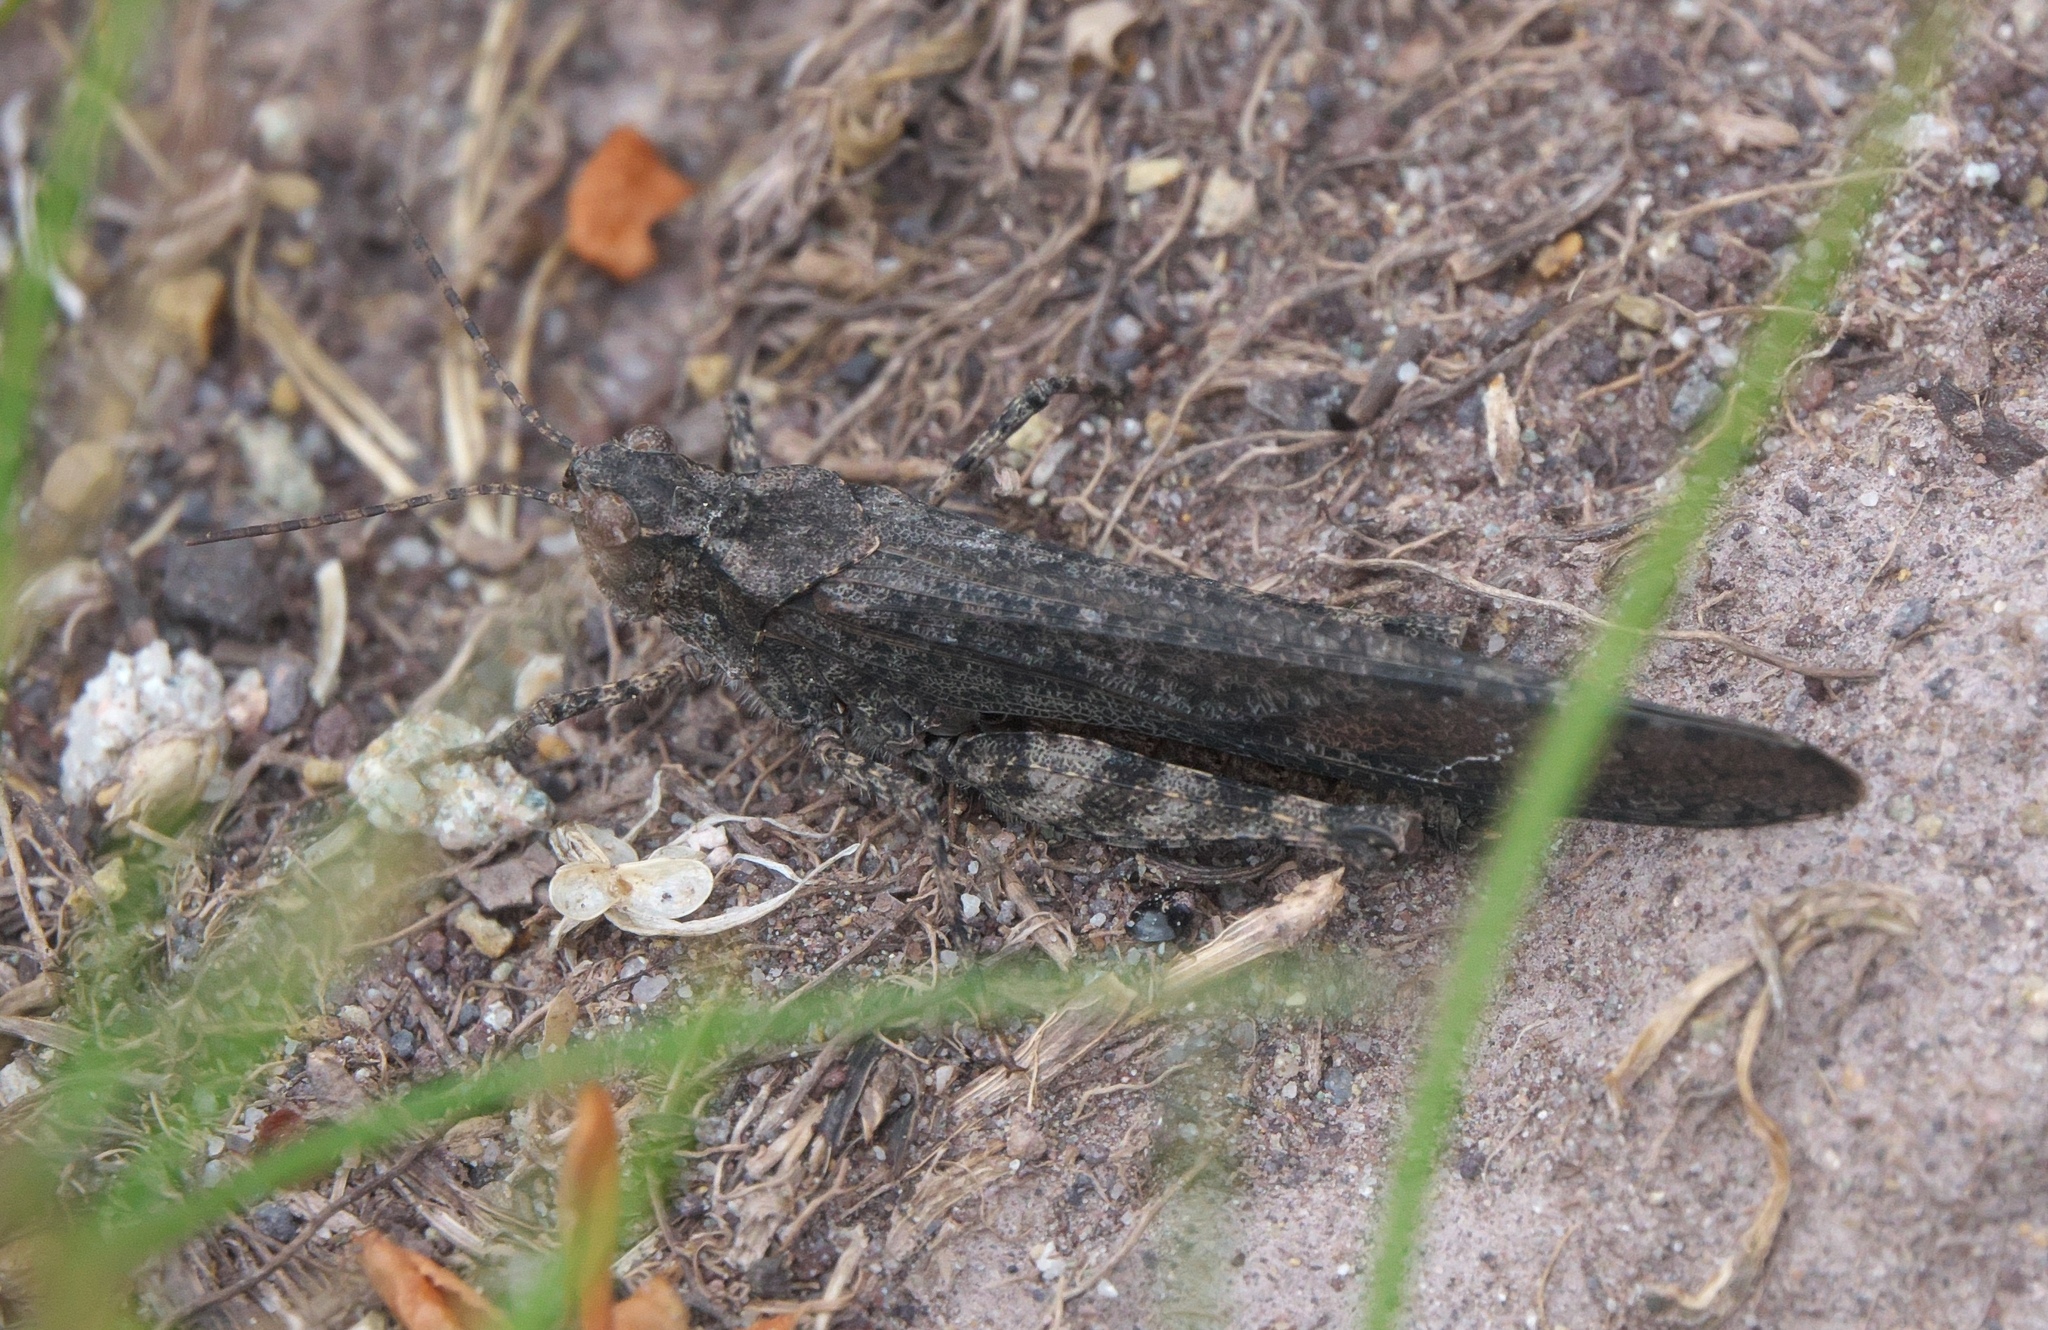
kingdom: Animalia
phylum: Arthropoda
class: Insecta
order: Orthoptera
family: Acrididae
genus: Trimerotropis
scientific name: Trimerotropis verruculata
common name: Crackling forest grasshopper
